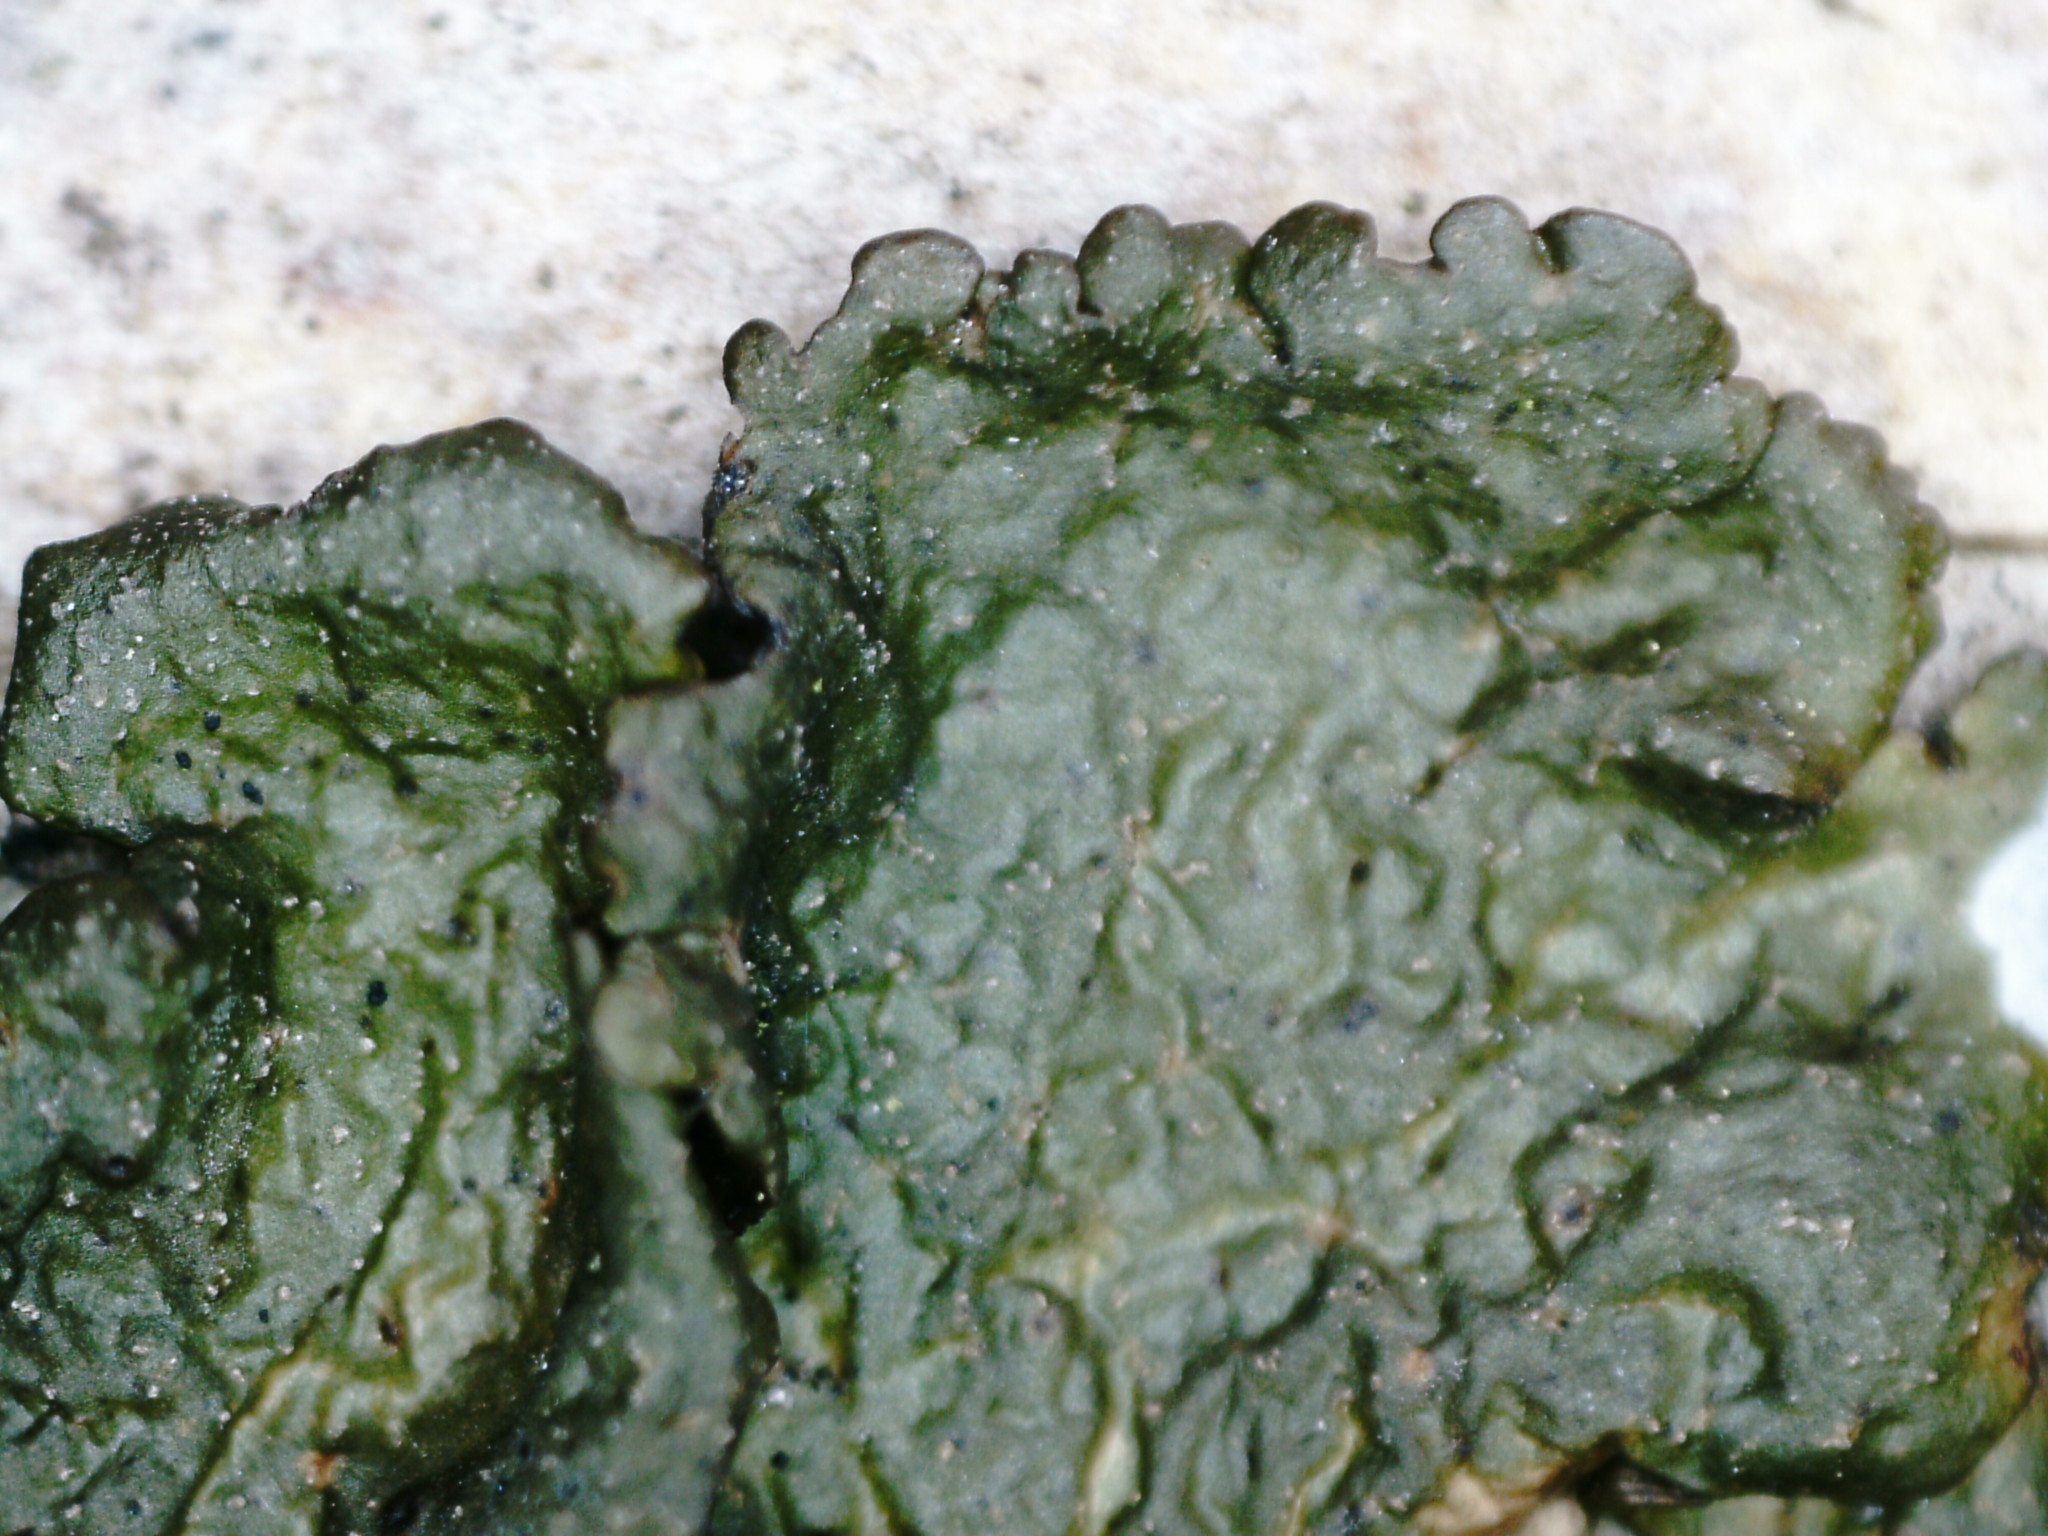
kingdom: Fungi
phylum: Ascomycota
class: Lecanoromycetes
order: Lecanorales
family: Parmeliaceae
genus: Melanohalea
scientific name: Melanohalea olivacea
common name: Spotted camouflage lichen
